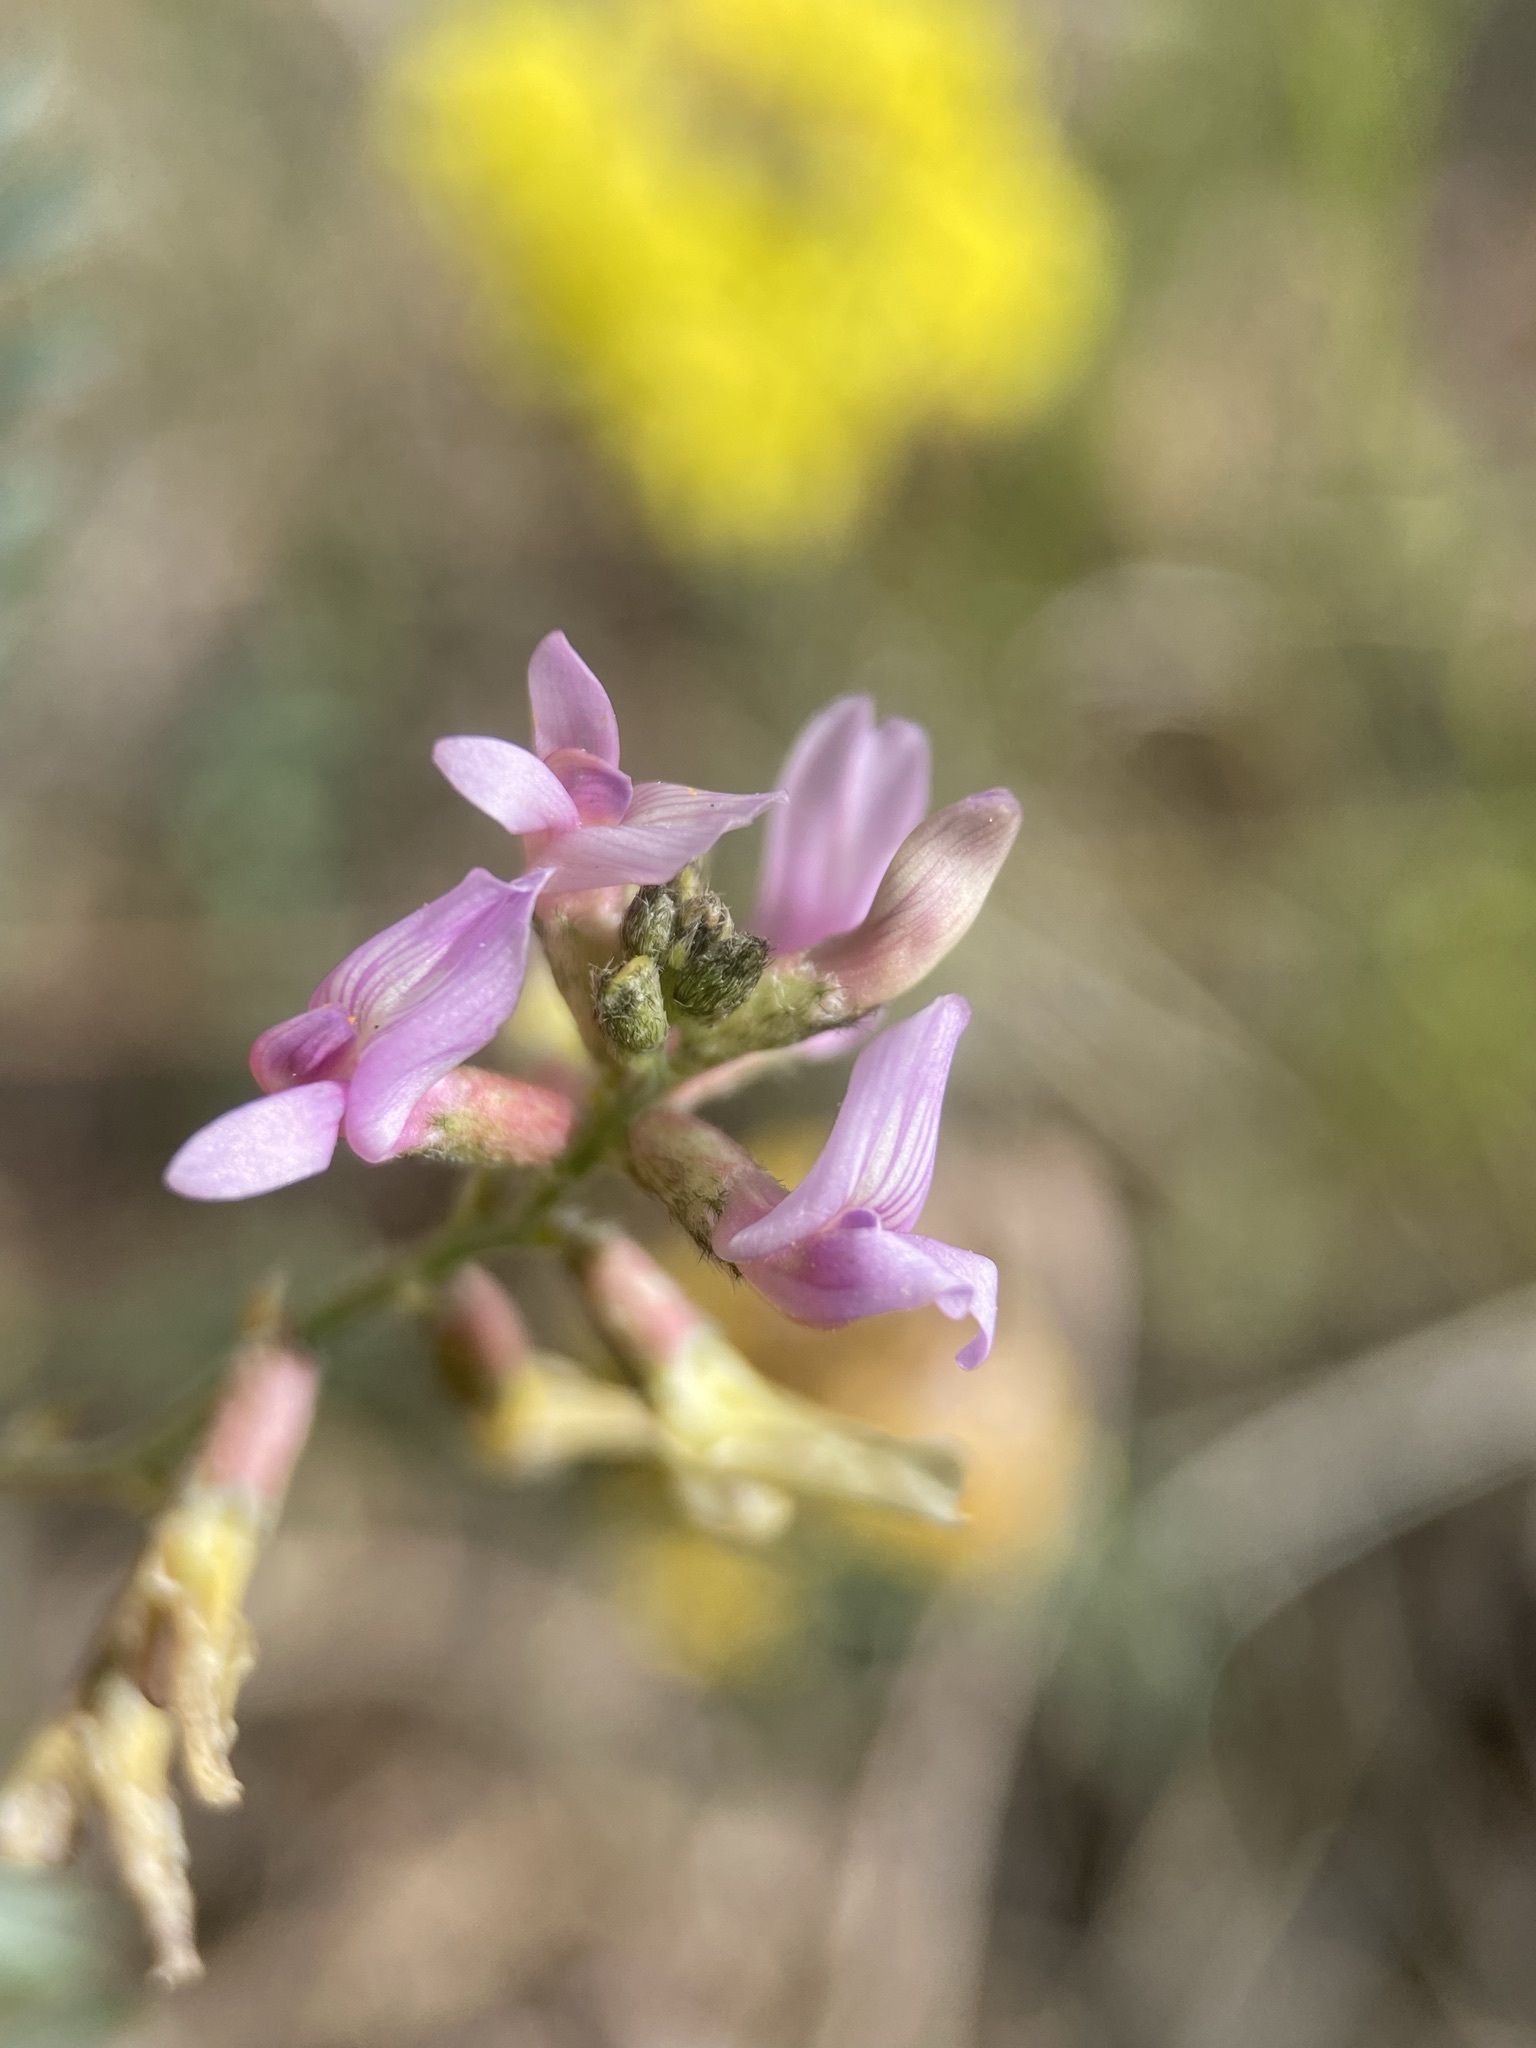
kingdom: Plantae
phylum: Tracheophyta
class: Magnoliopsida
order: Fabales
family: Fabaceae
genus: Astragalus
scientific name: Astragalus flexuosus
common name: Pliant milk-vetch
